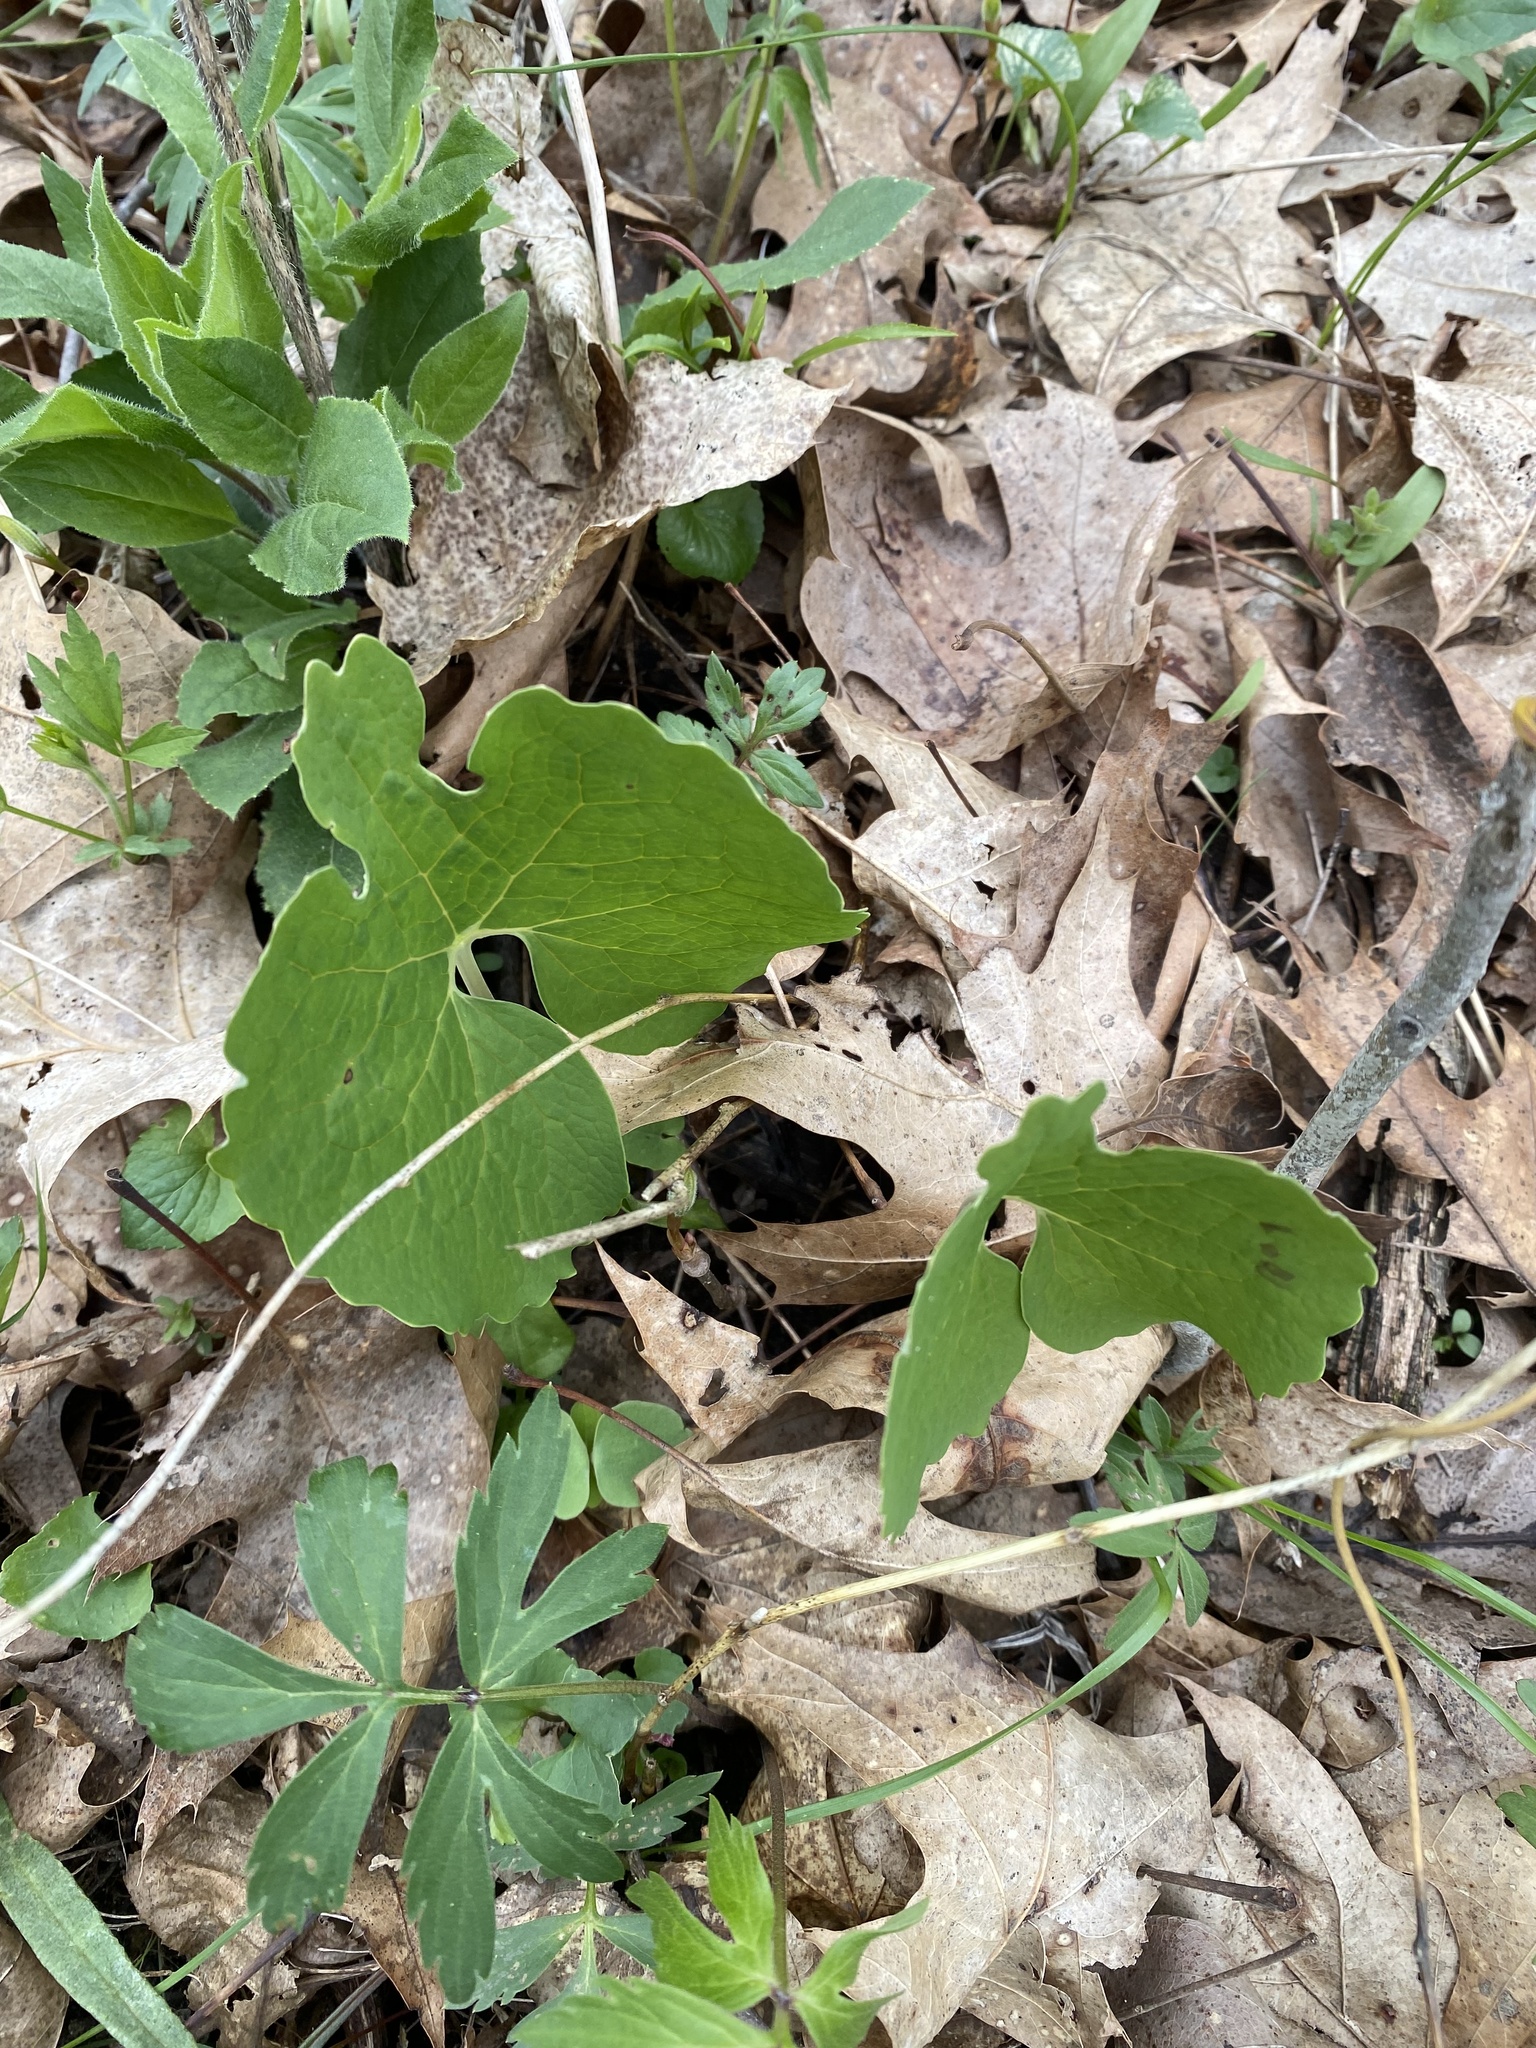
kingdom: Plantae
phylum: Tracheophyta
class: Magnoliopsida
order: Ranunculales
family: Papaveraceae
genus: Sanguinaria
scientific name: Sanguinaria canadensis
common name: Bloodroot
